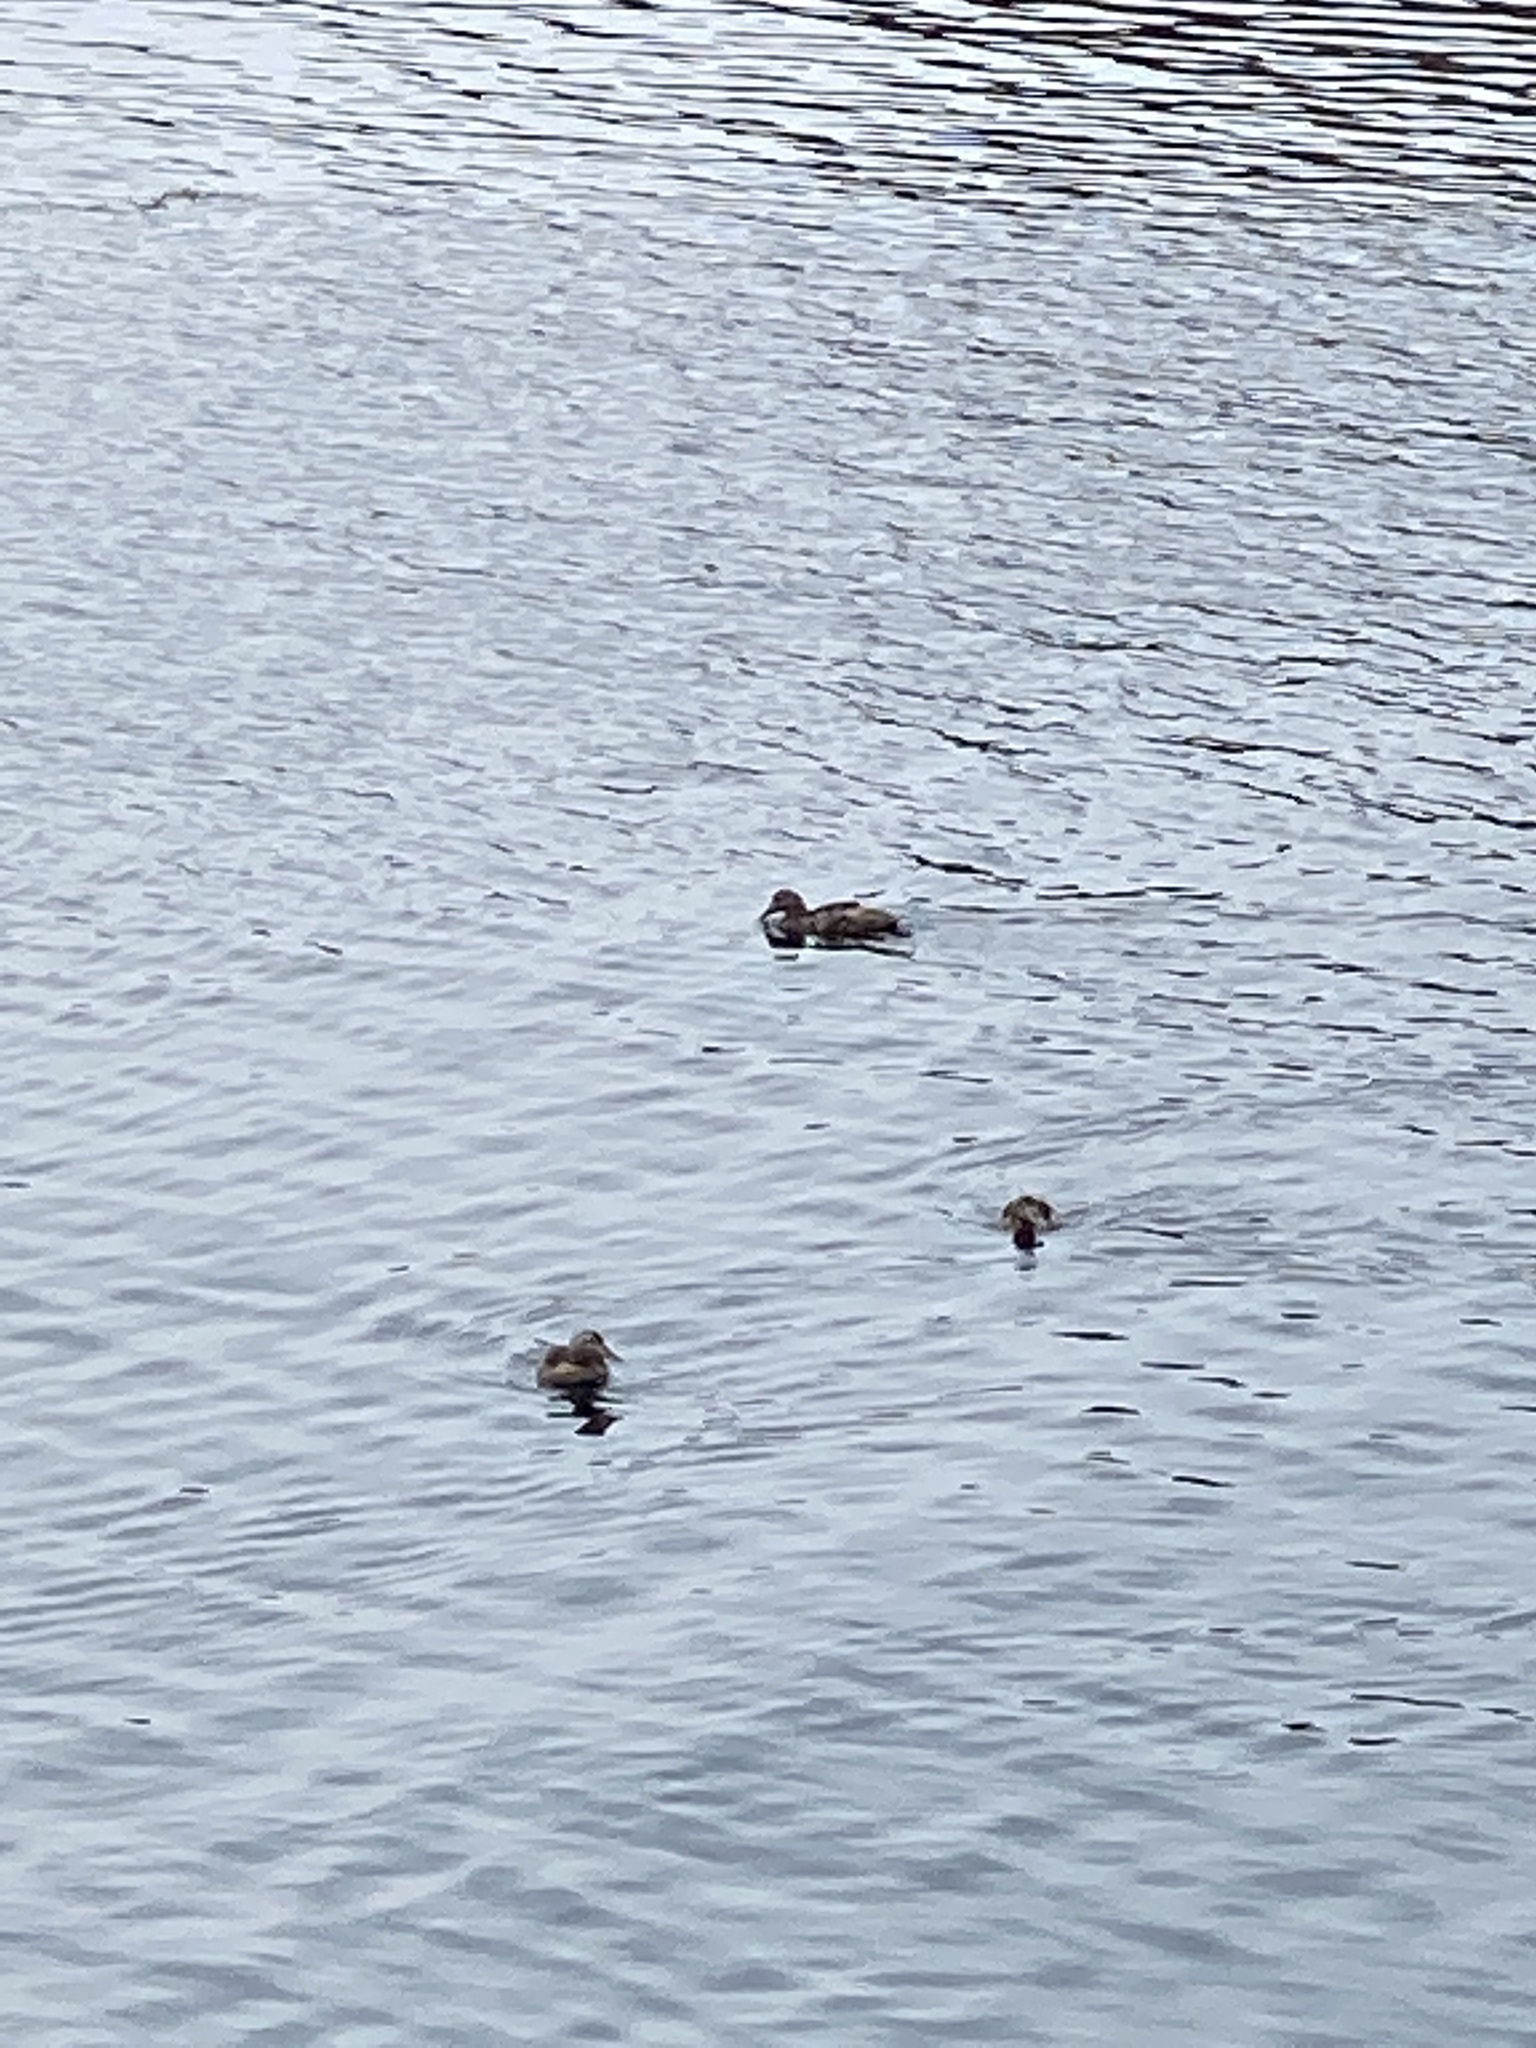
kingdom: Animalia
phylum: Chordata
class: Aves
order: Anseriformes
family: Anatidae
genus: Somateria
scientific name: Somateria mollissima
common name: Common eider
